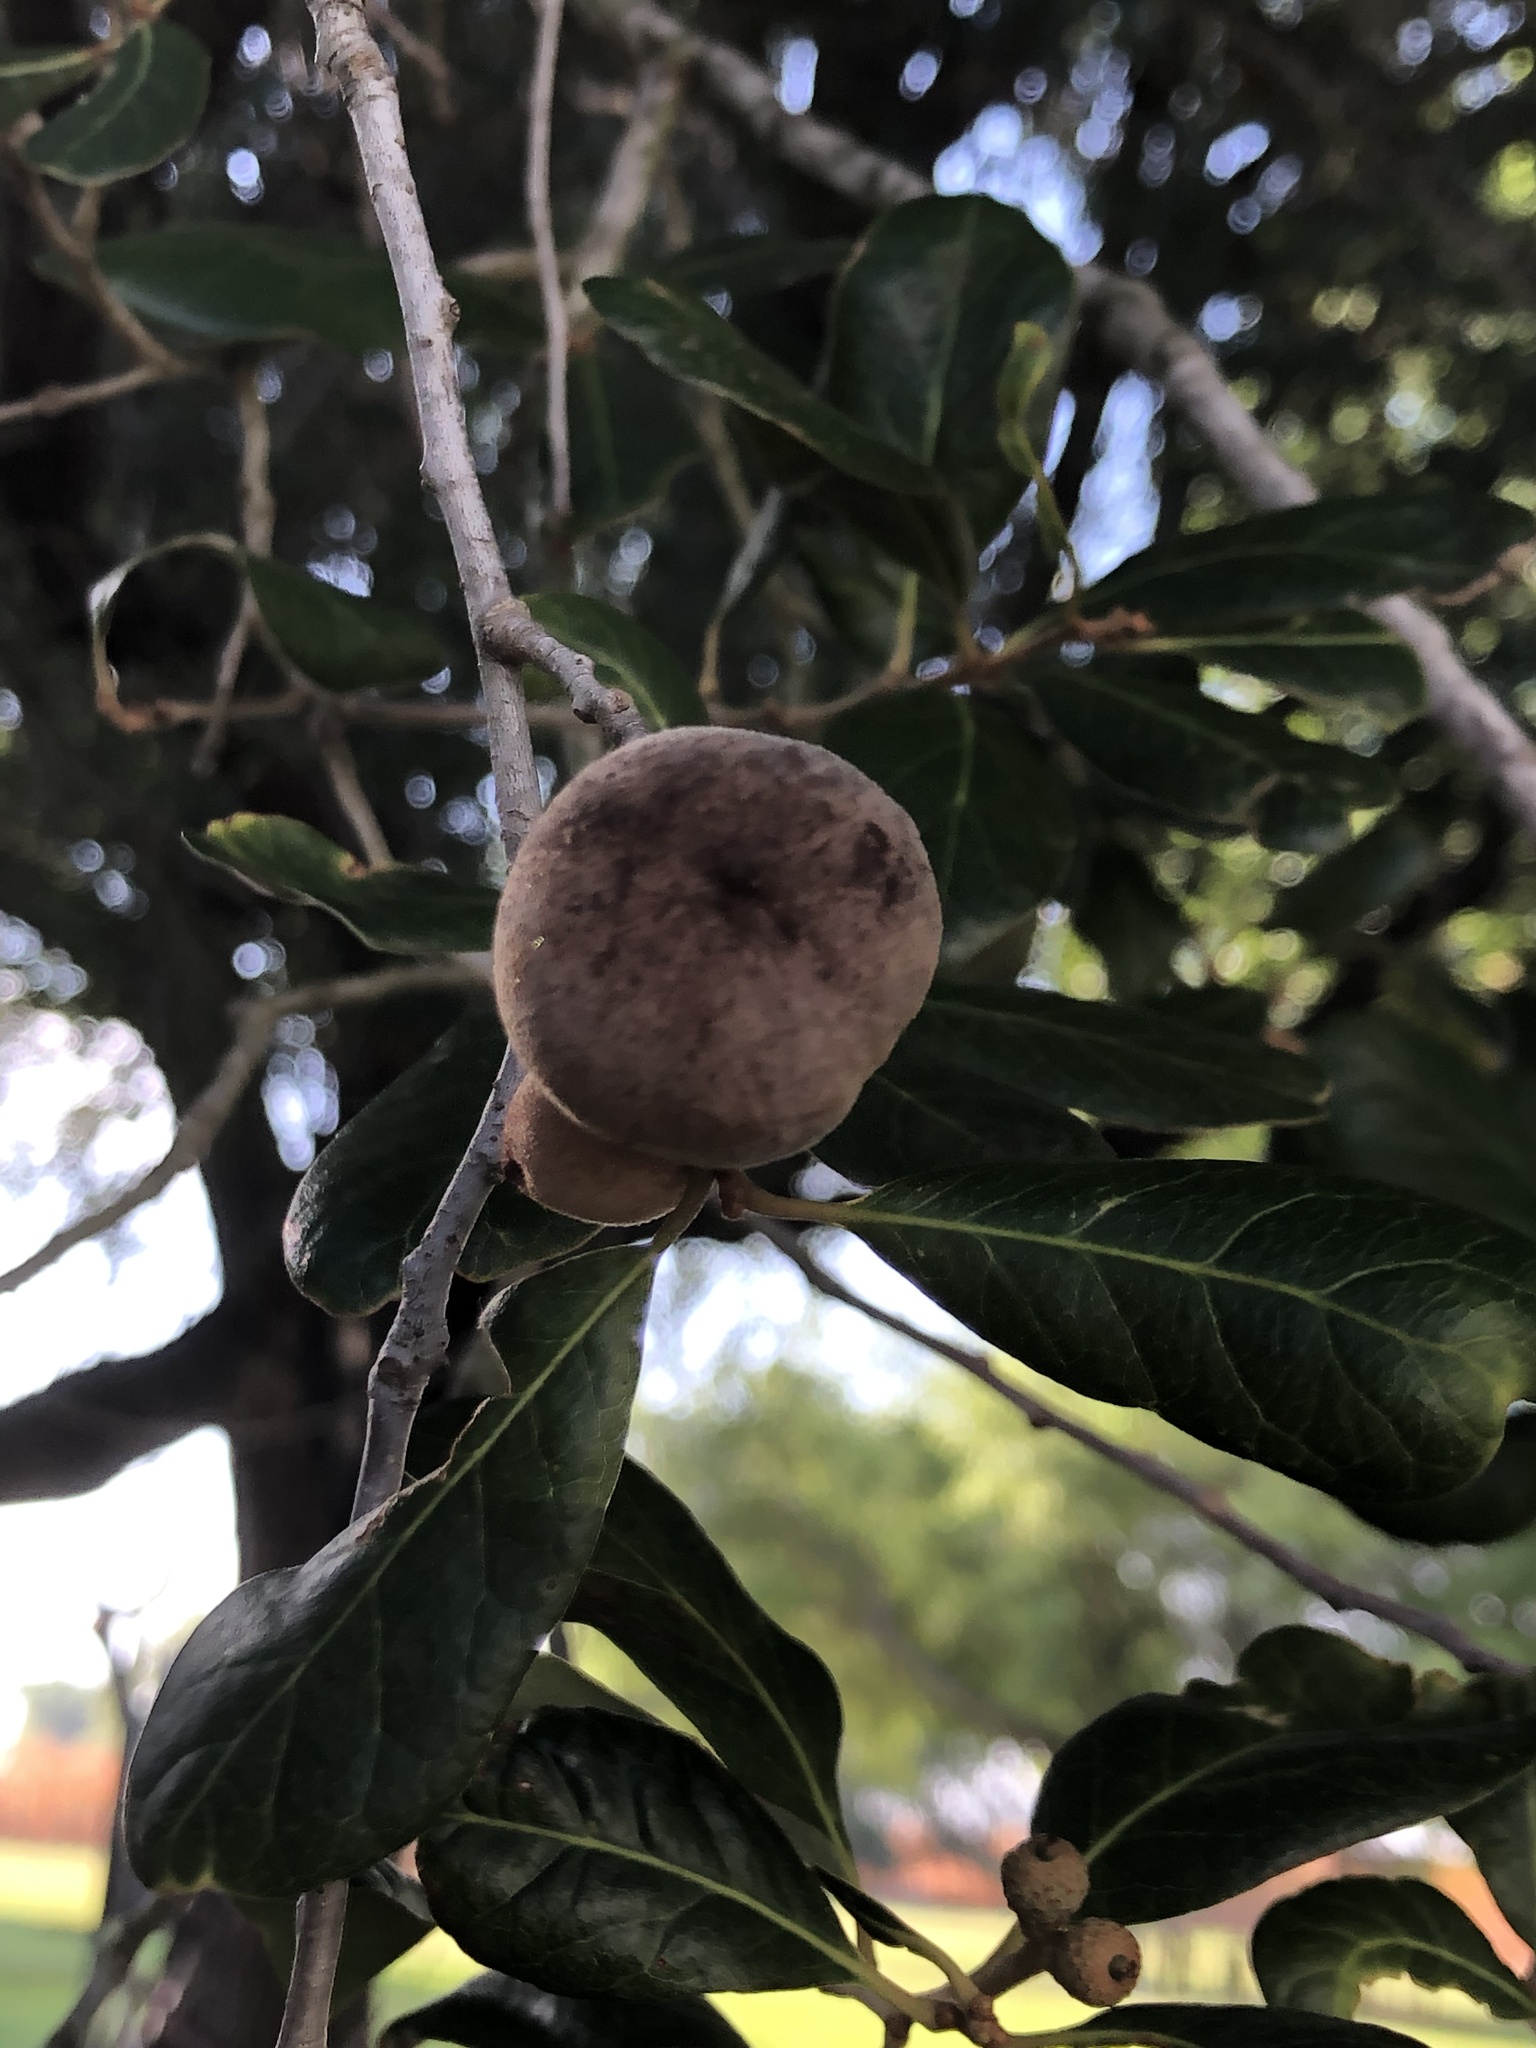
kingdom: Animalia
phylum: Arthropoda
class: Insecta
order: Hymenoptera
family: Cynipidae
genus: Disholcaspis
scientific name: Disholcaspis
